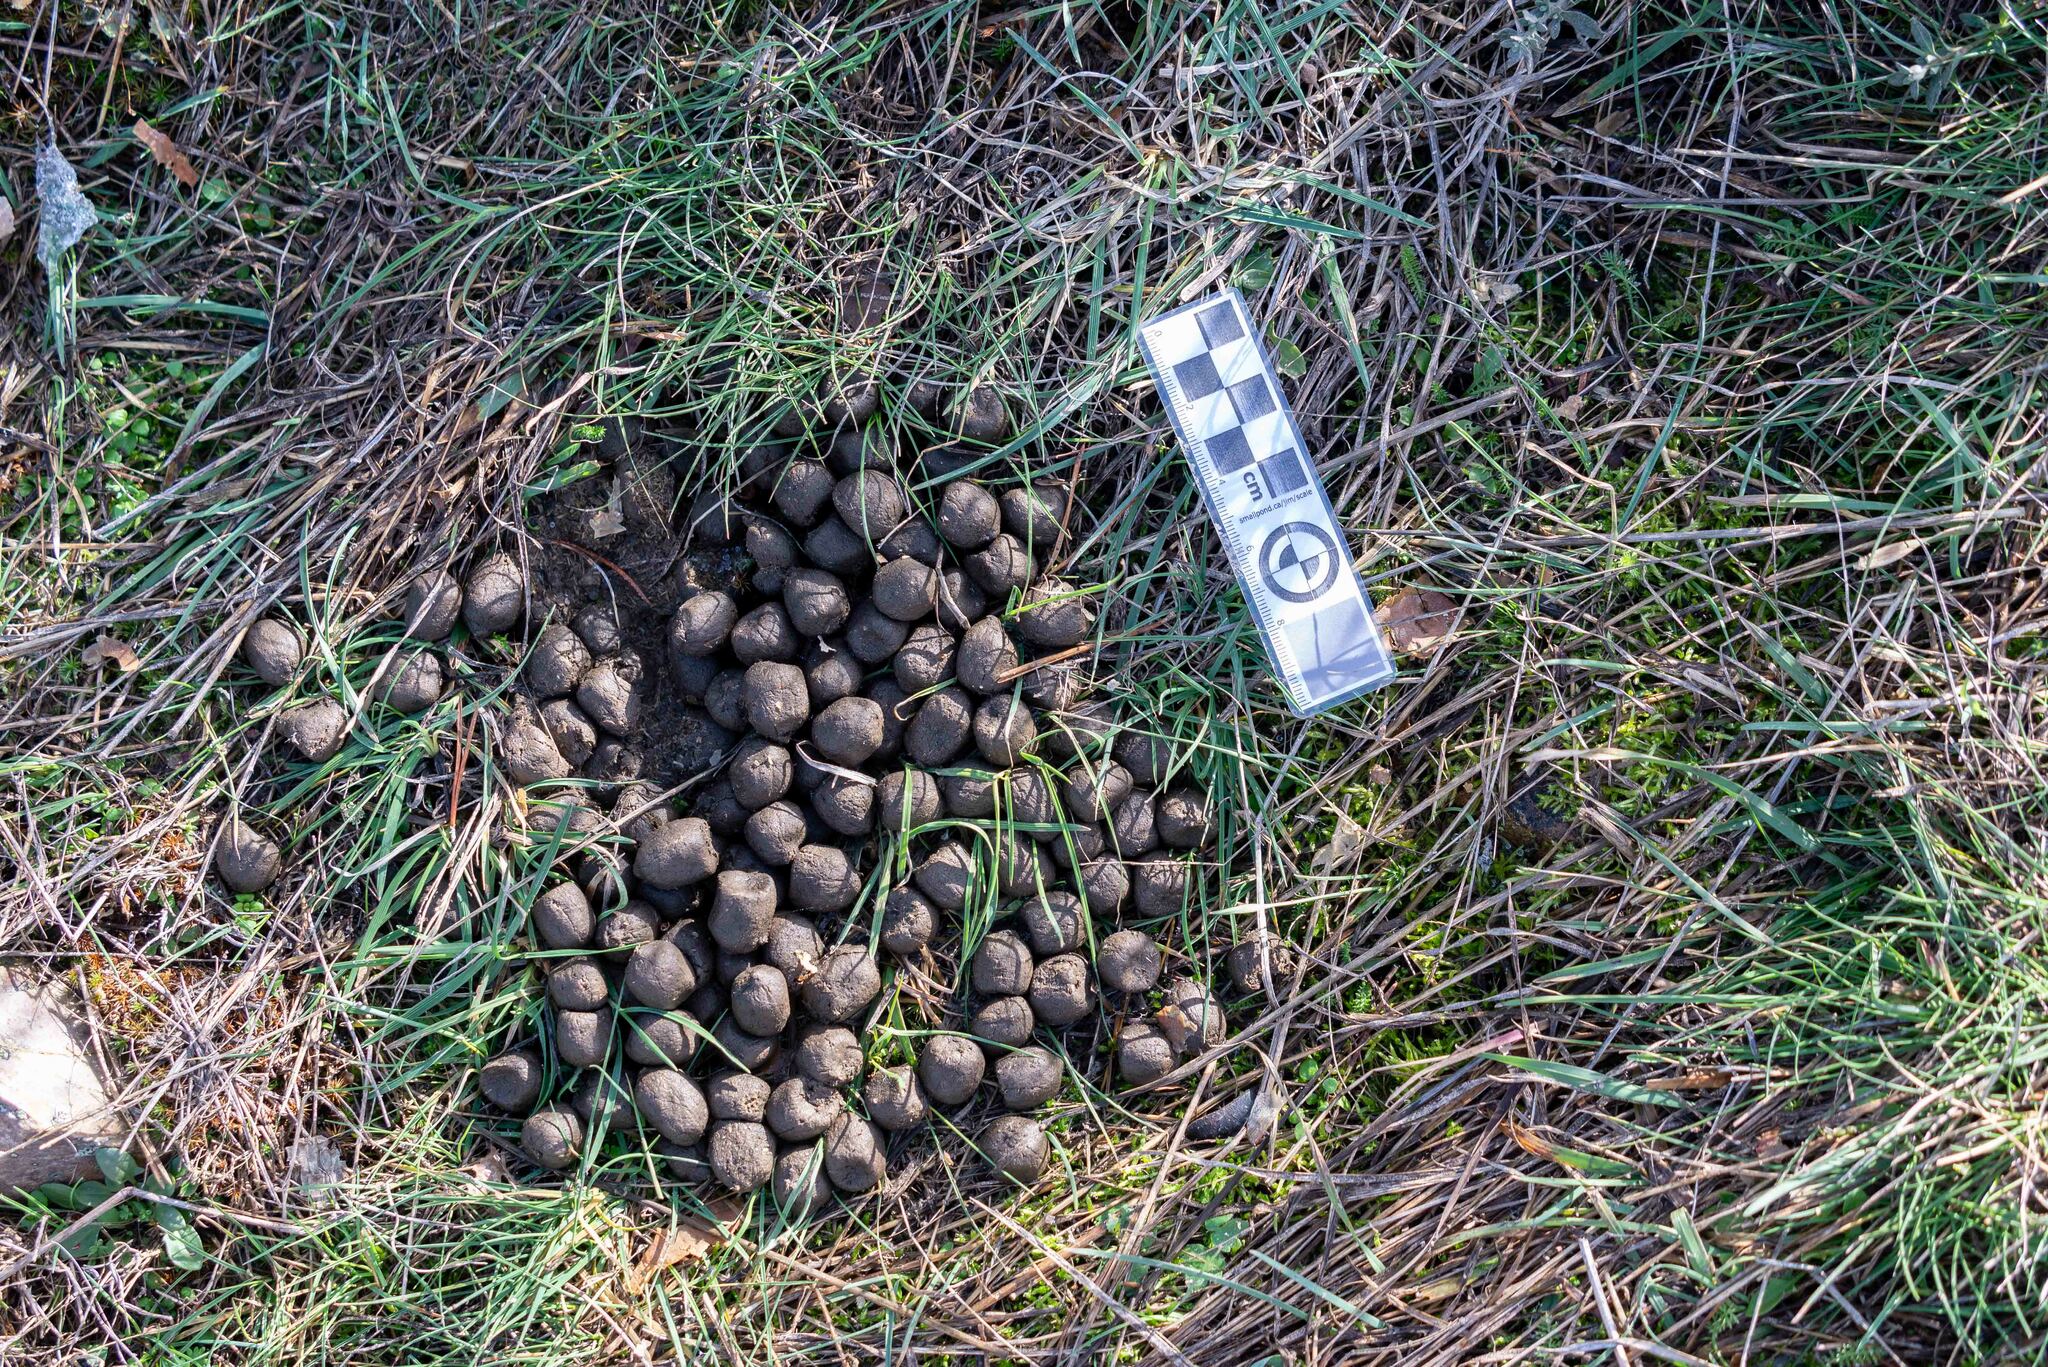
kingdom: Animalia
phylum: Chordata
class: Mammalia
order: Artiodactyla
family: Cervidae
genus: Cervus
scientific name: Cervus elaphus
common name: Red deer
